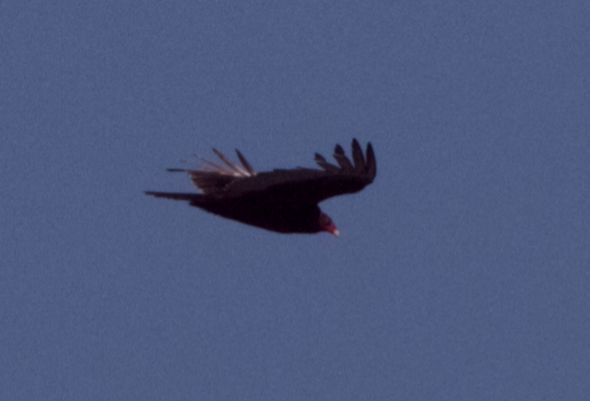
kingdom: Animalia
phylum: Chordata
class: Aves
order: Accipitriformes
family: Cathartidae
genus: Cathartes
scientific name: Cathartes aura
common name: Turkey vulture
